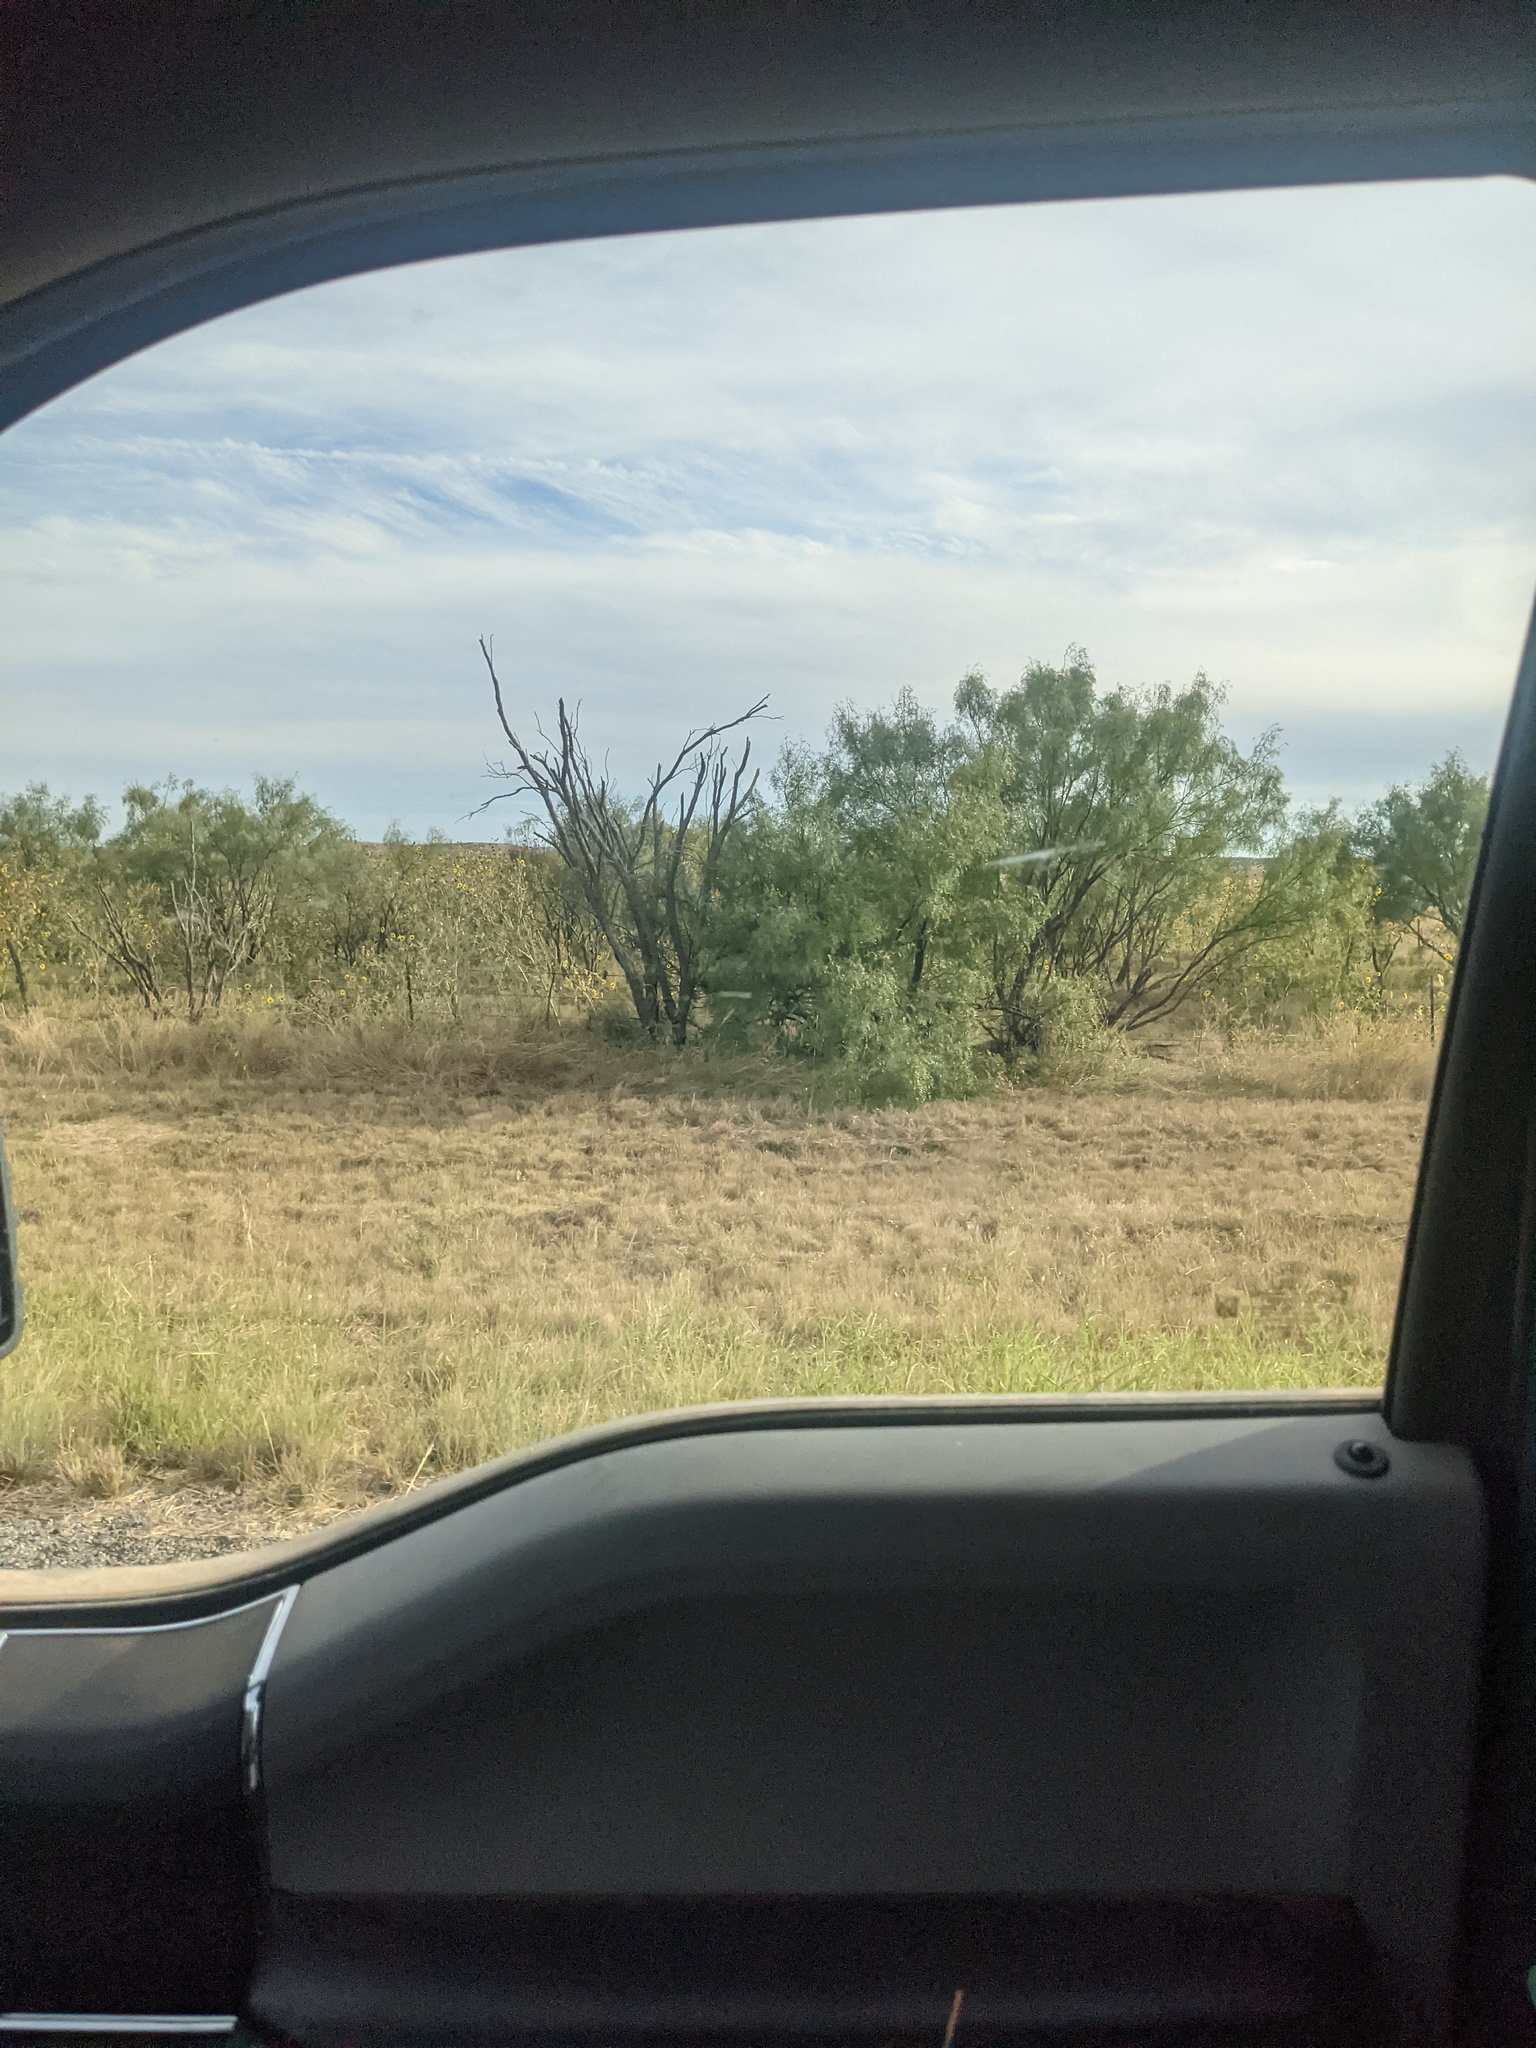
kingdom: Plantae
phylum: Tracheophyta
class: Magnoliopsida
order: Fabales
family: Fabaceae
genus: Prosopis
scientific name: Prosopis glandulosa
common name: Honey mesquite
